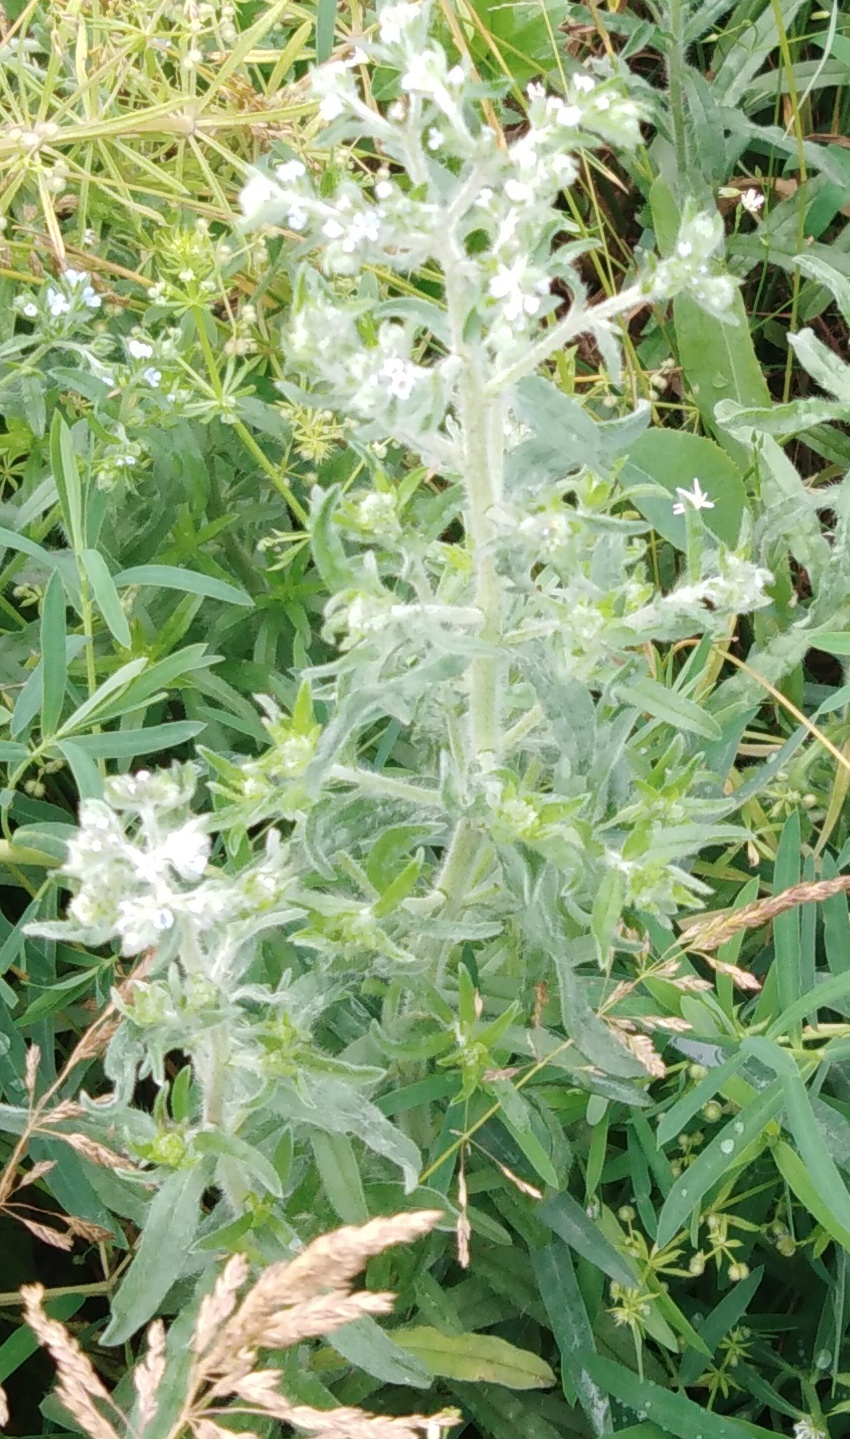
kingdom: Plantae
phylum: Tracheophyta
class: Magnoliopsida
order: Boraginales
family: Boraginaceae
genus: Buglossoides
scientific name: Buglossoides arvensis
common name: Corn gromwell
